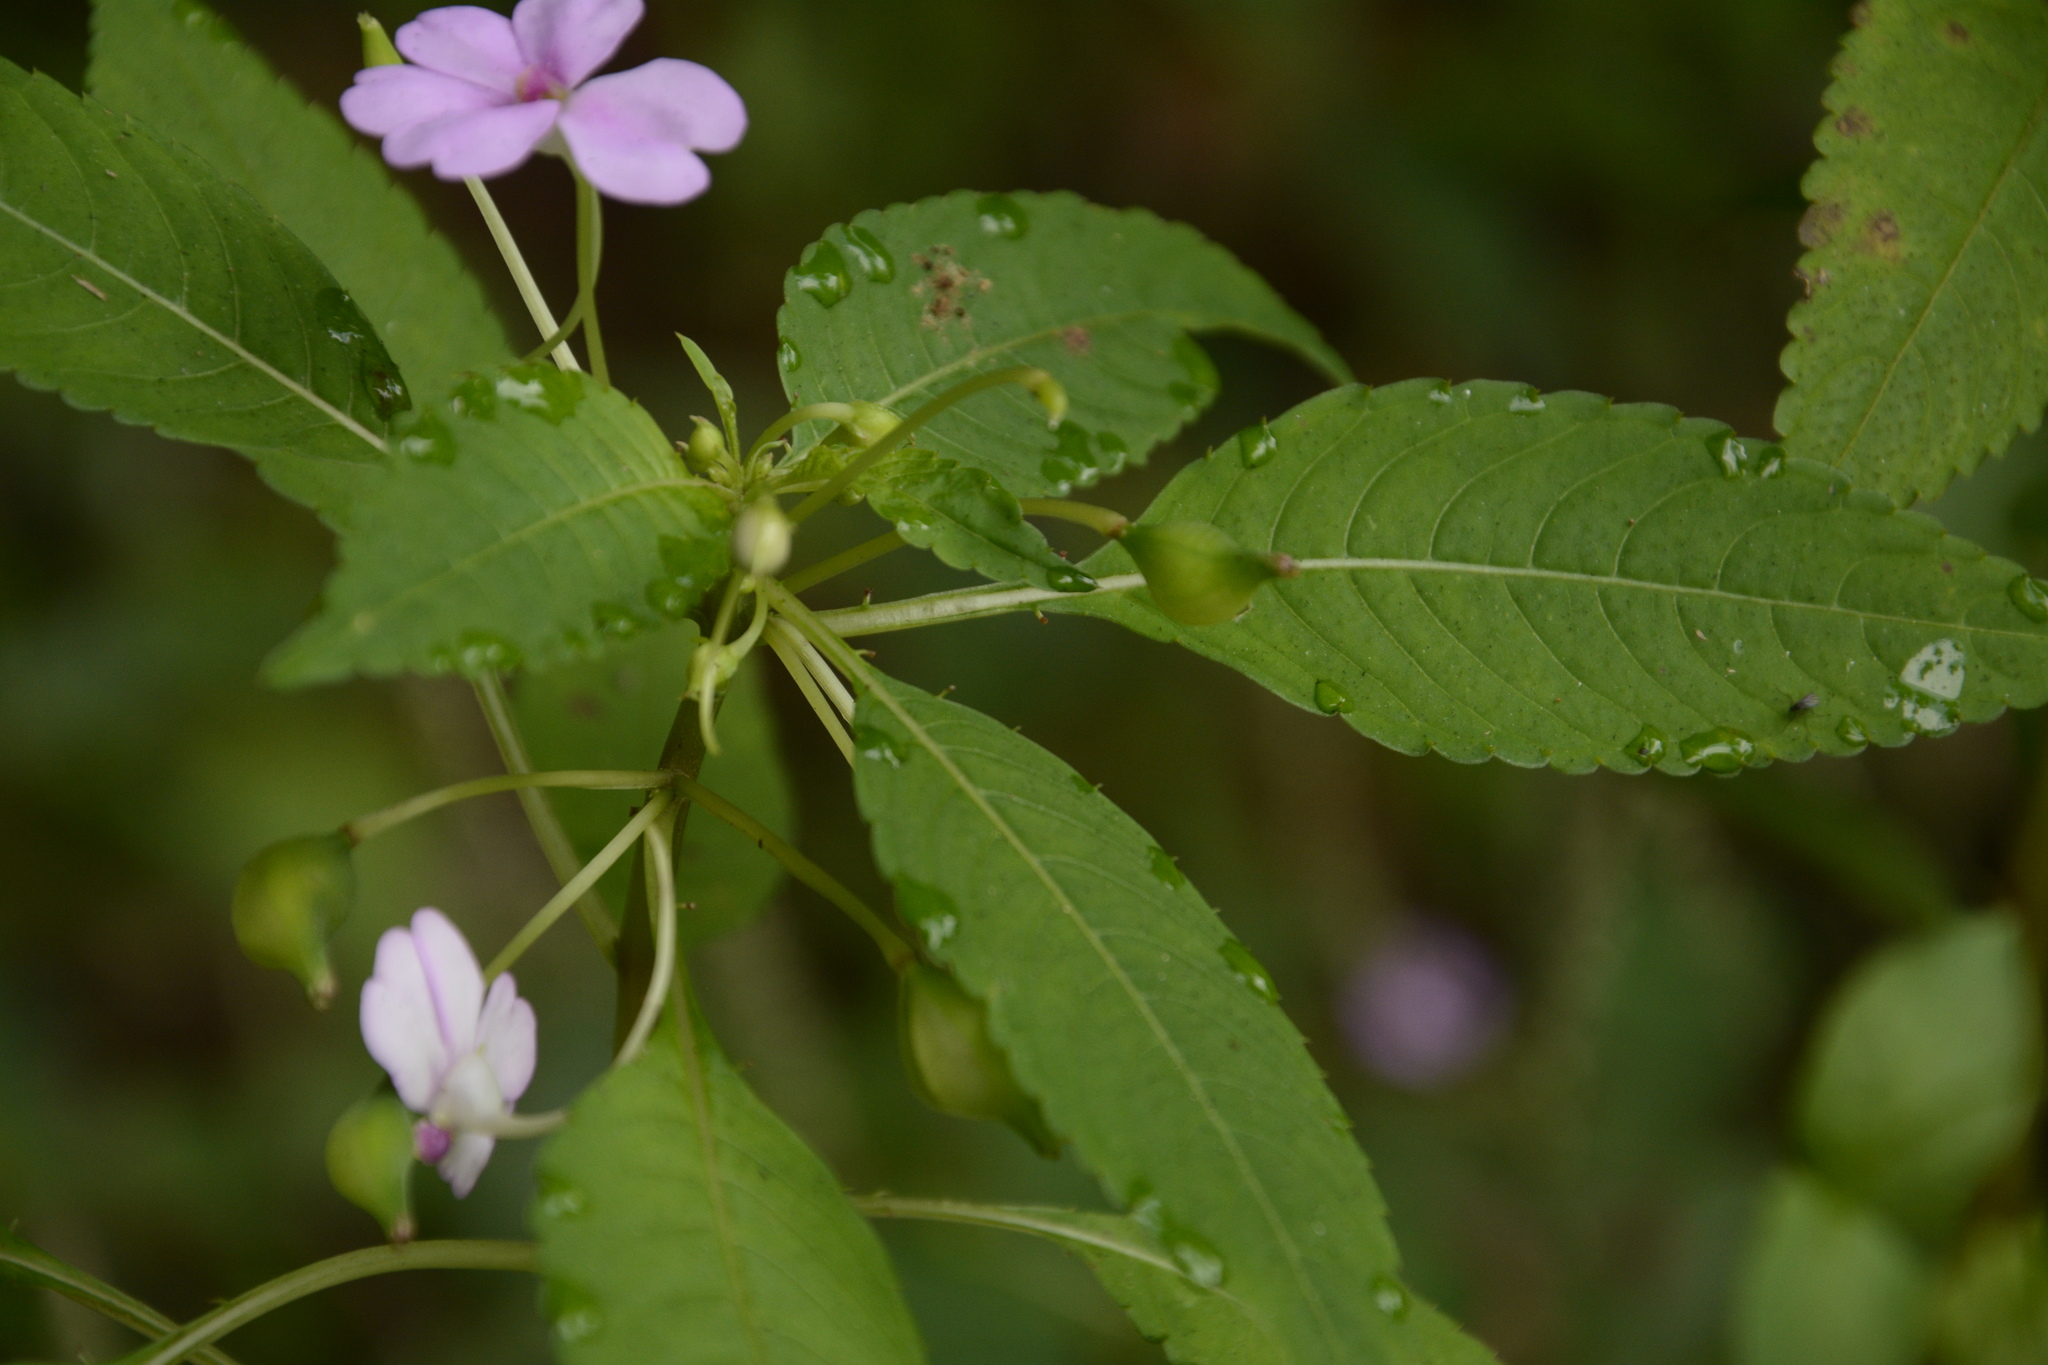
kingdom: Plantae
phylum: Tracheophyta
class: Magnoliopsida
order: Ericales
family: Balsaminaceae
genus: Impatiens
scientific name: Impatiens dasysperma
